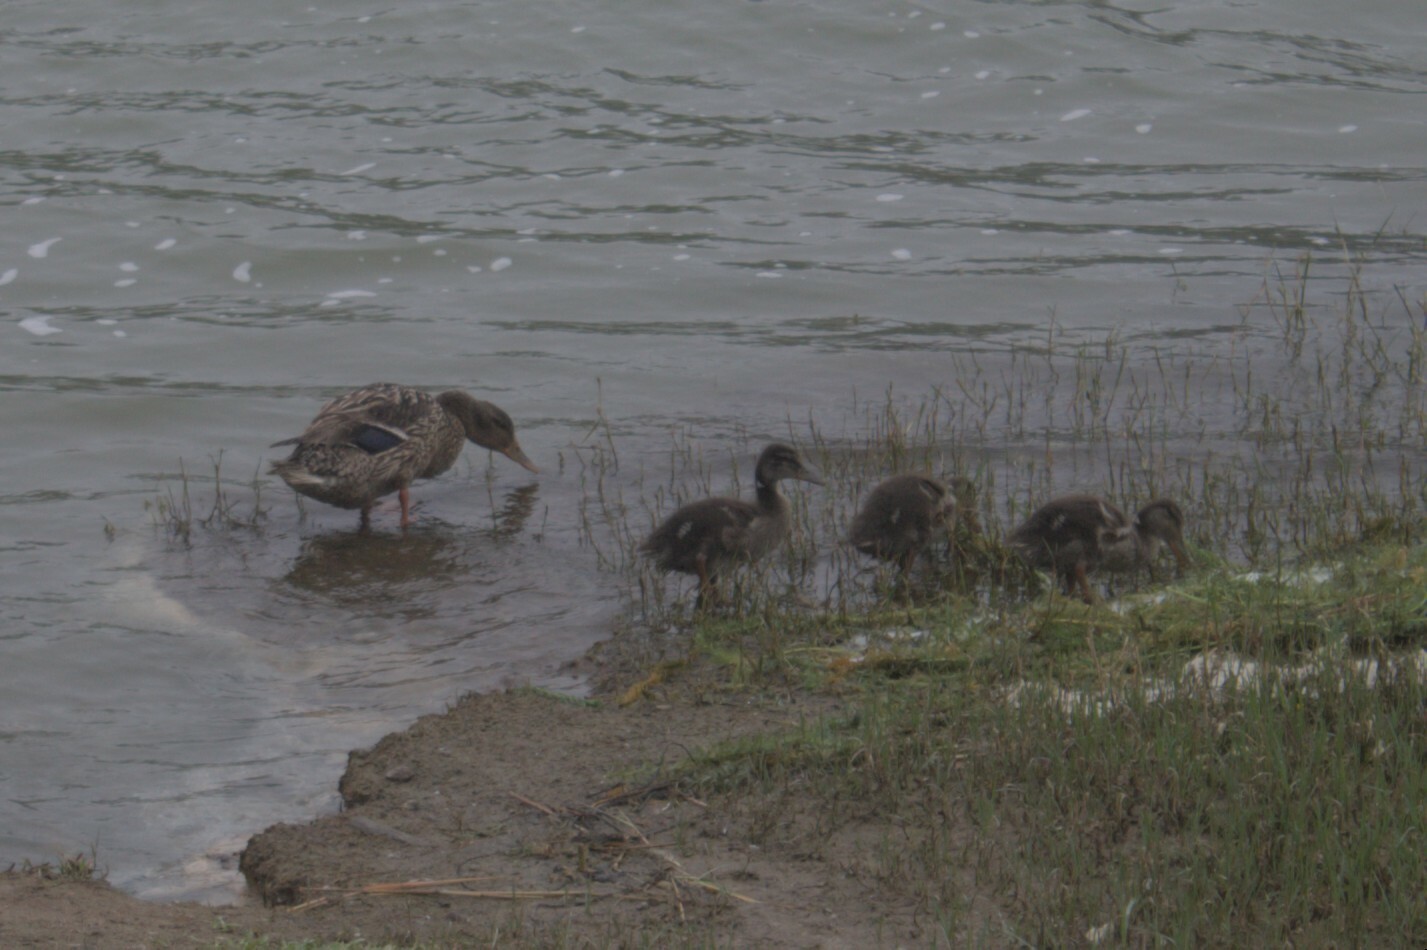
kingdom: Animalia
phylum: Chordata
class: Aves
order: Anseriformes
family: Anatidae
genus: Anas
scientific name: Anas platyrhynchos
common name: Mallard
